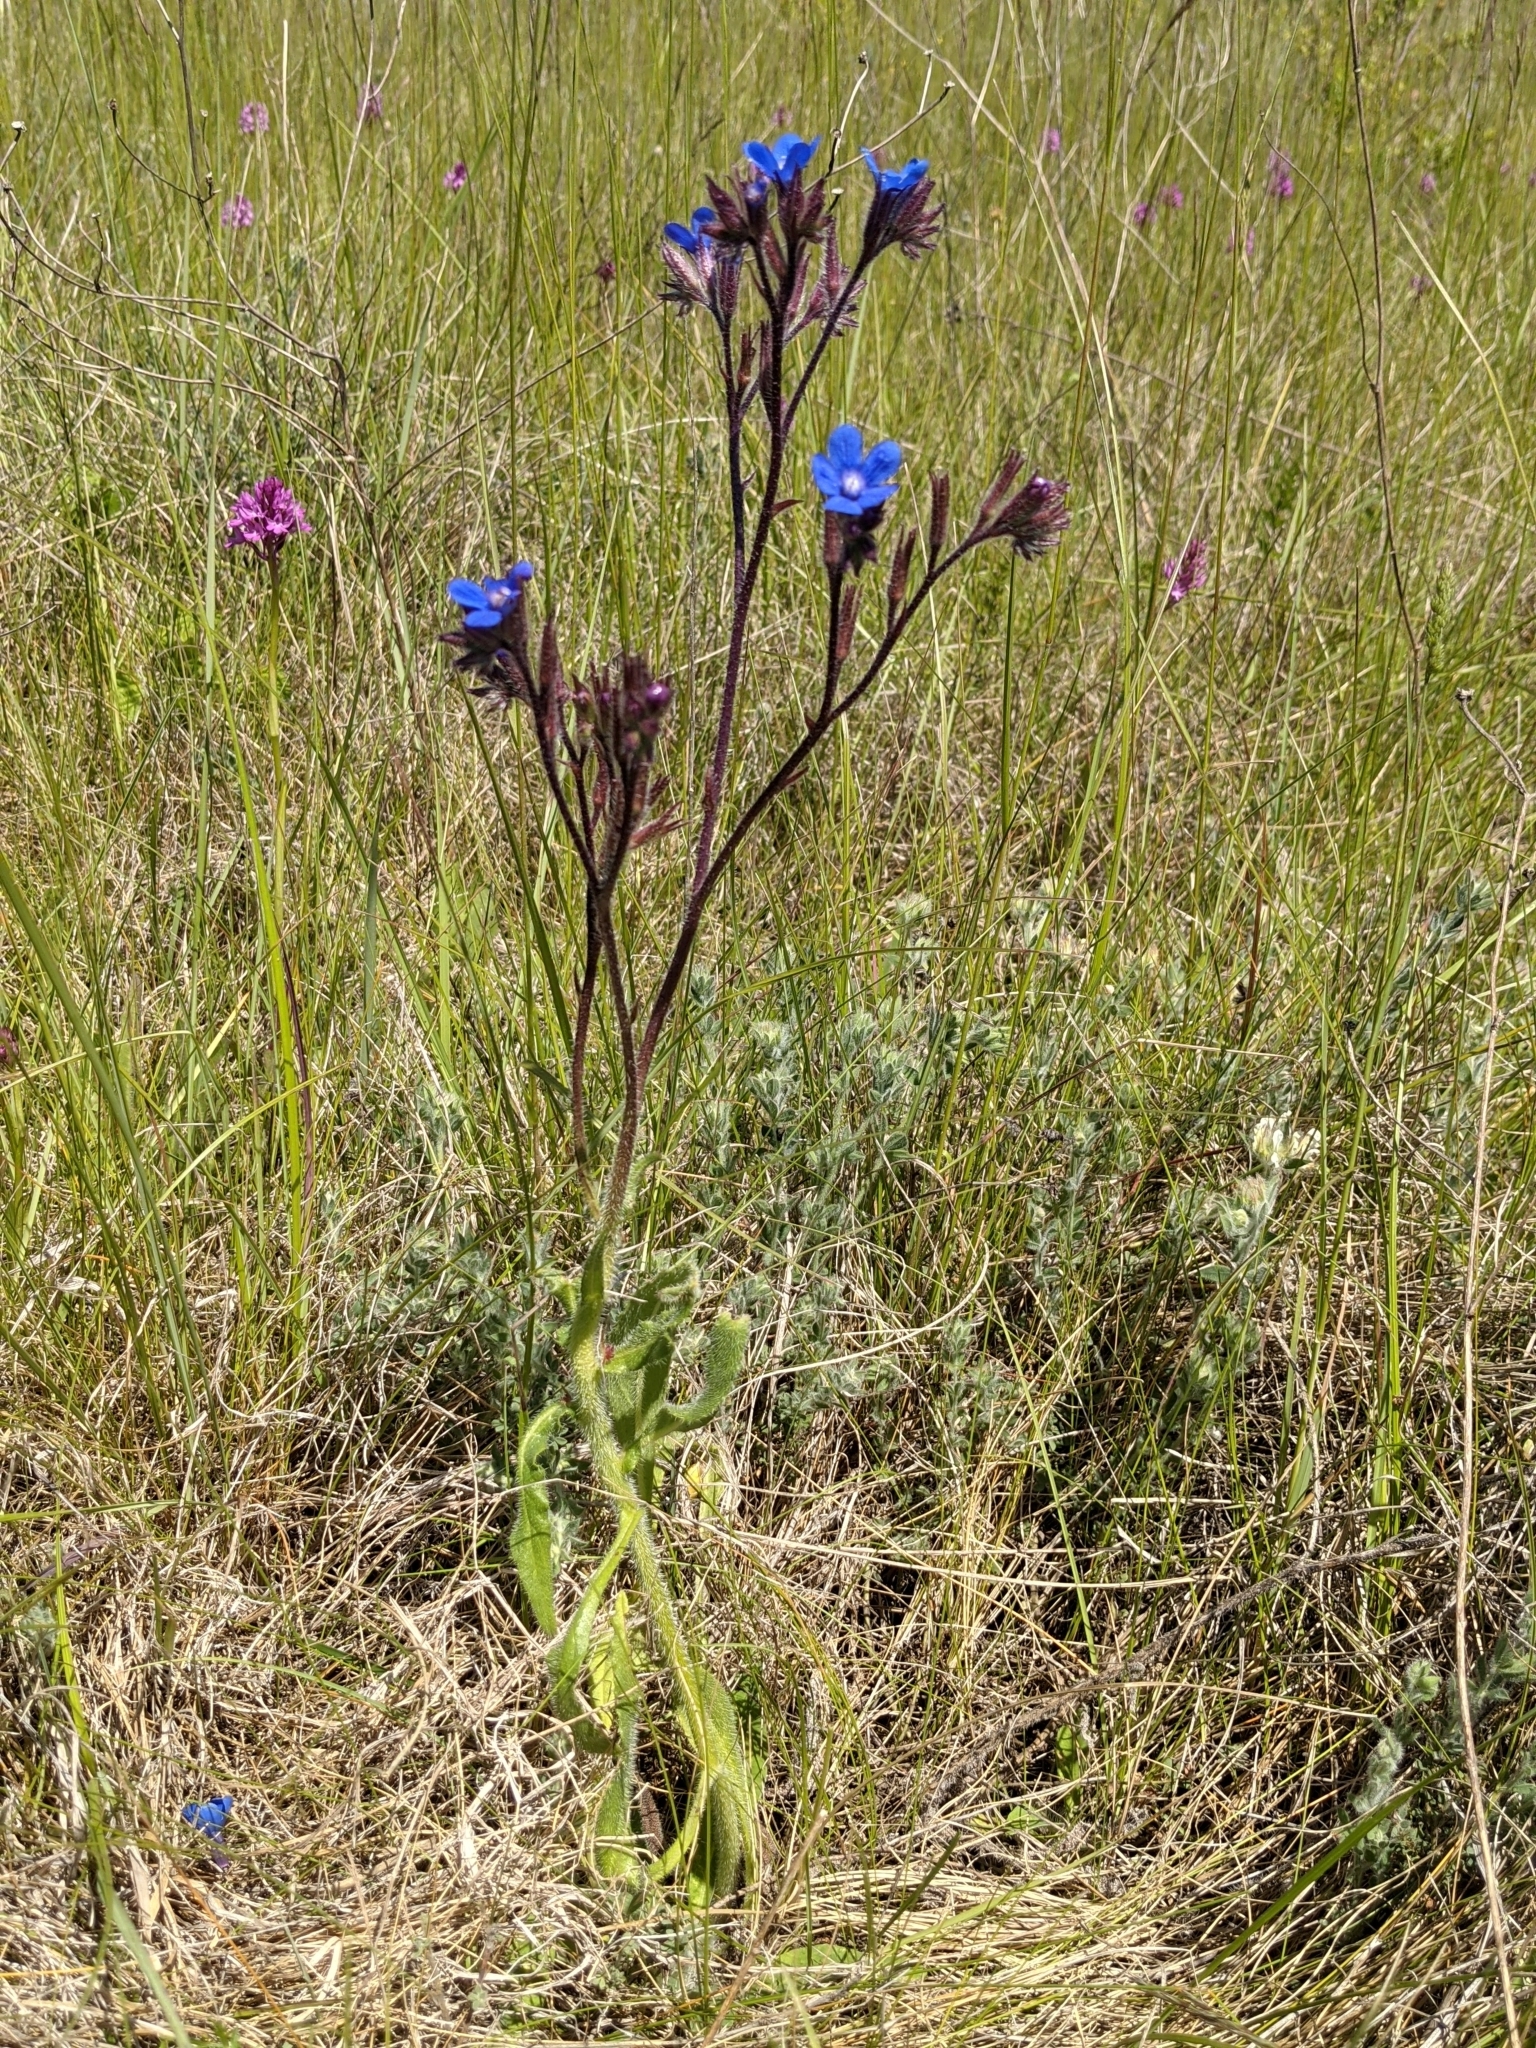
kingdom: Plantae
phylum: Tracheophyta
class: Magnoliopsida
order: Boraginales
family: Boraginaceae
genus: Anchusa
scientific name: Anchusa azurea
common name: Garden anchusa
